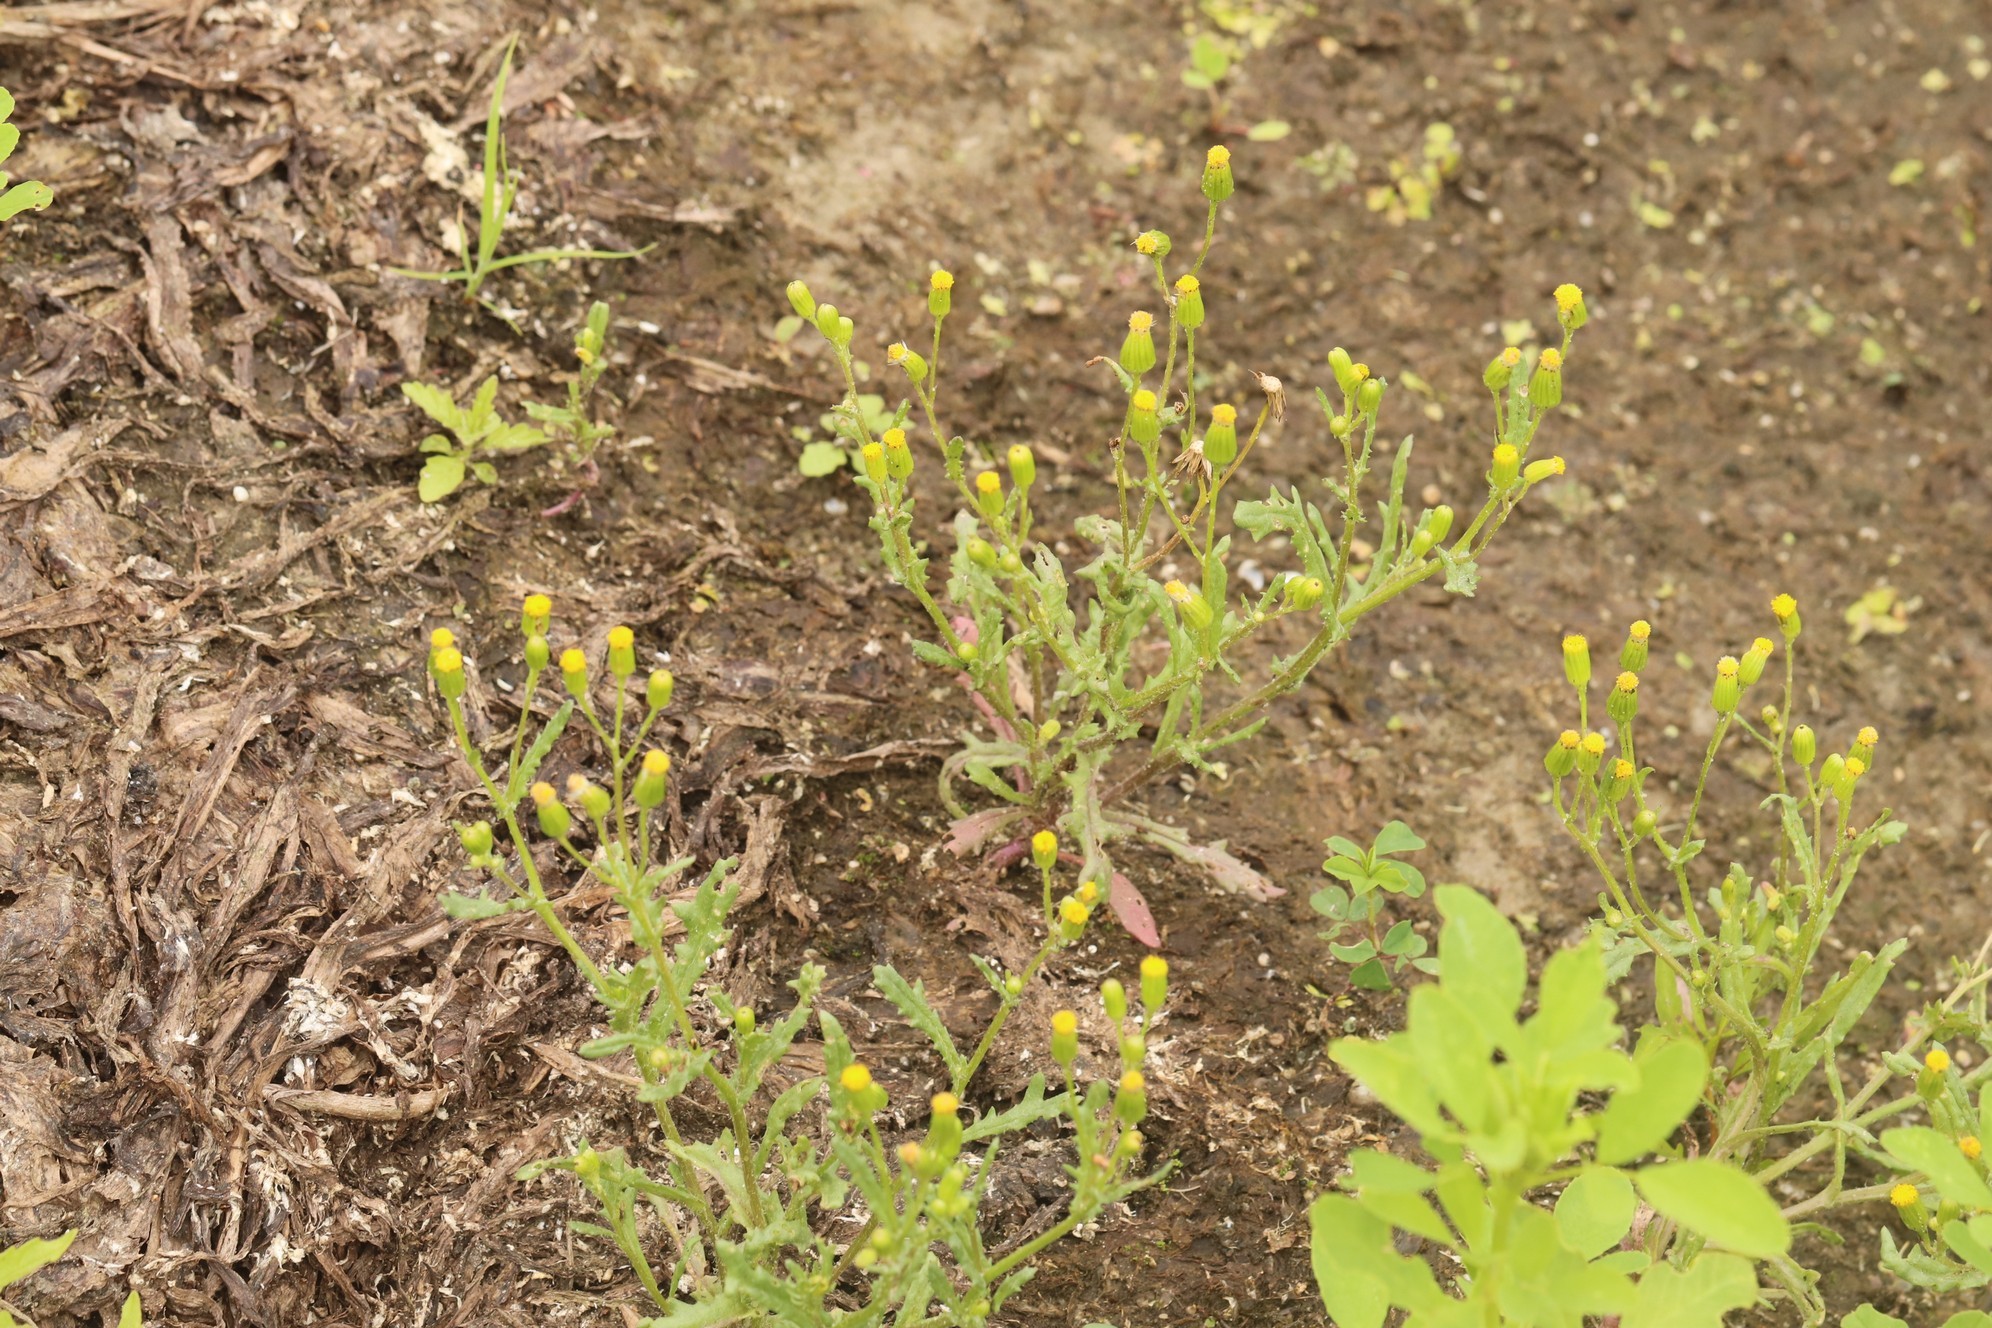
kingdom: Plantae
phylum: Tracheophyta
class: Magnoliopsida
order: Asterales
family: Asteraceae
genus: Senecio
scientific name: Senecio dubitabilis
